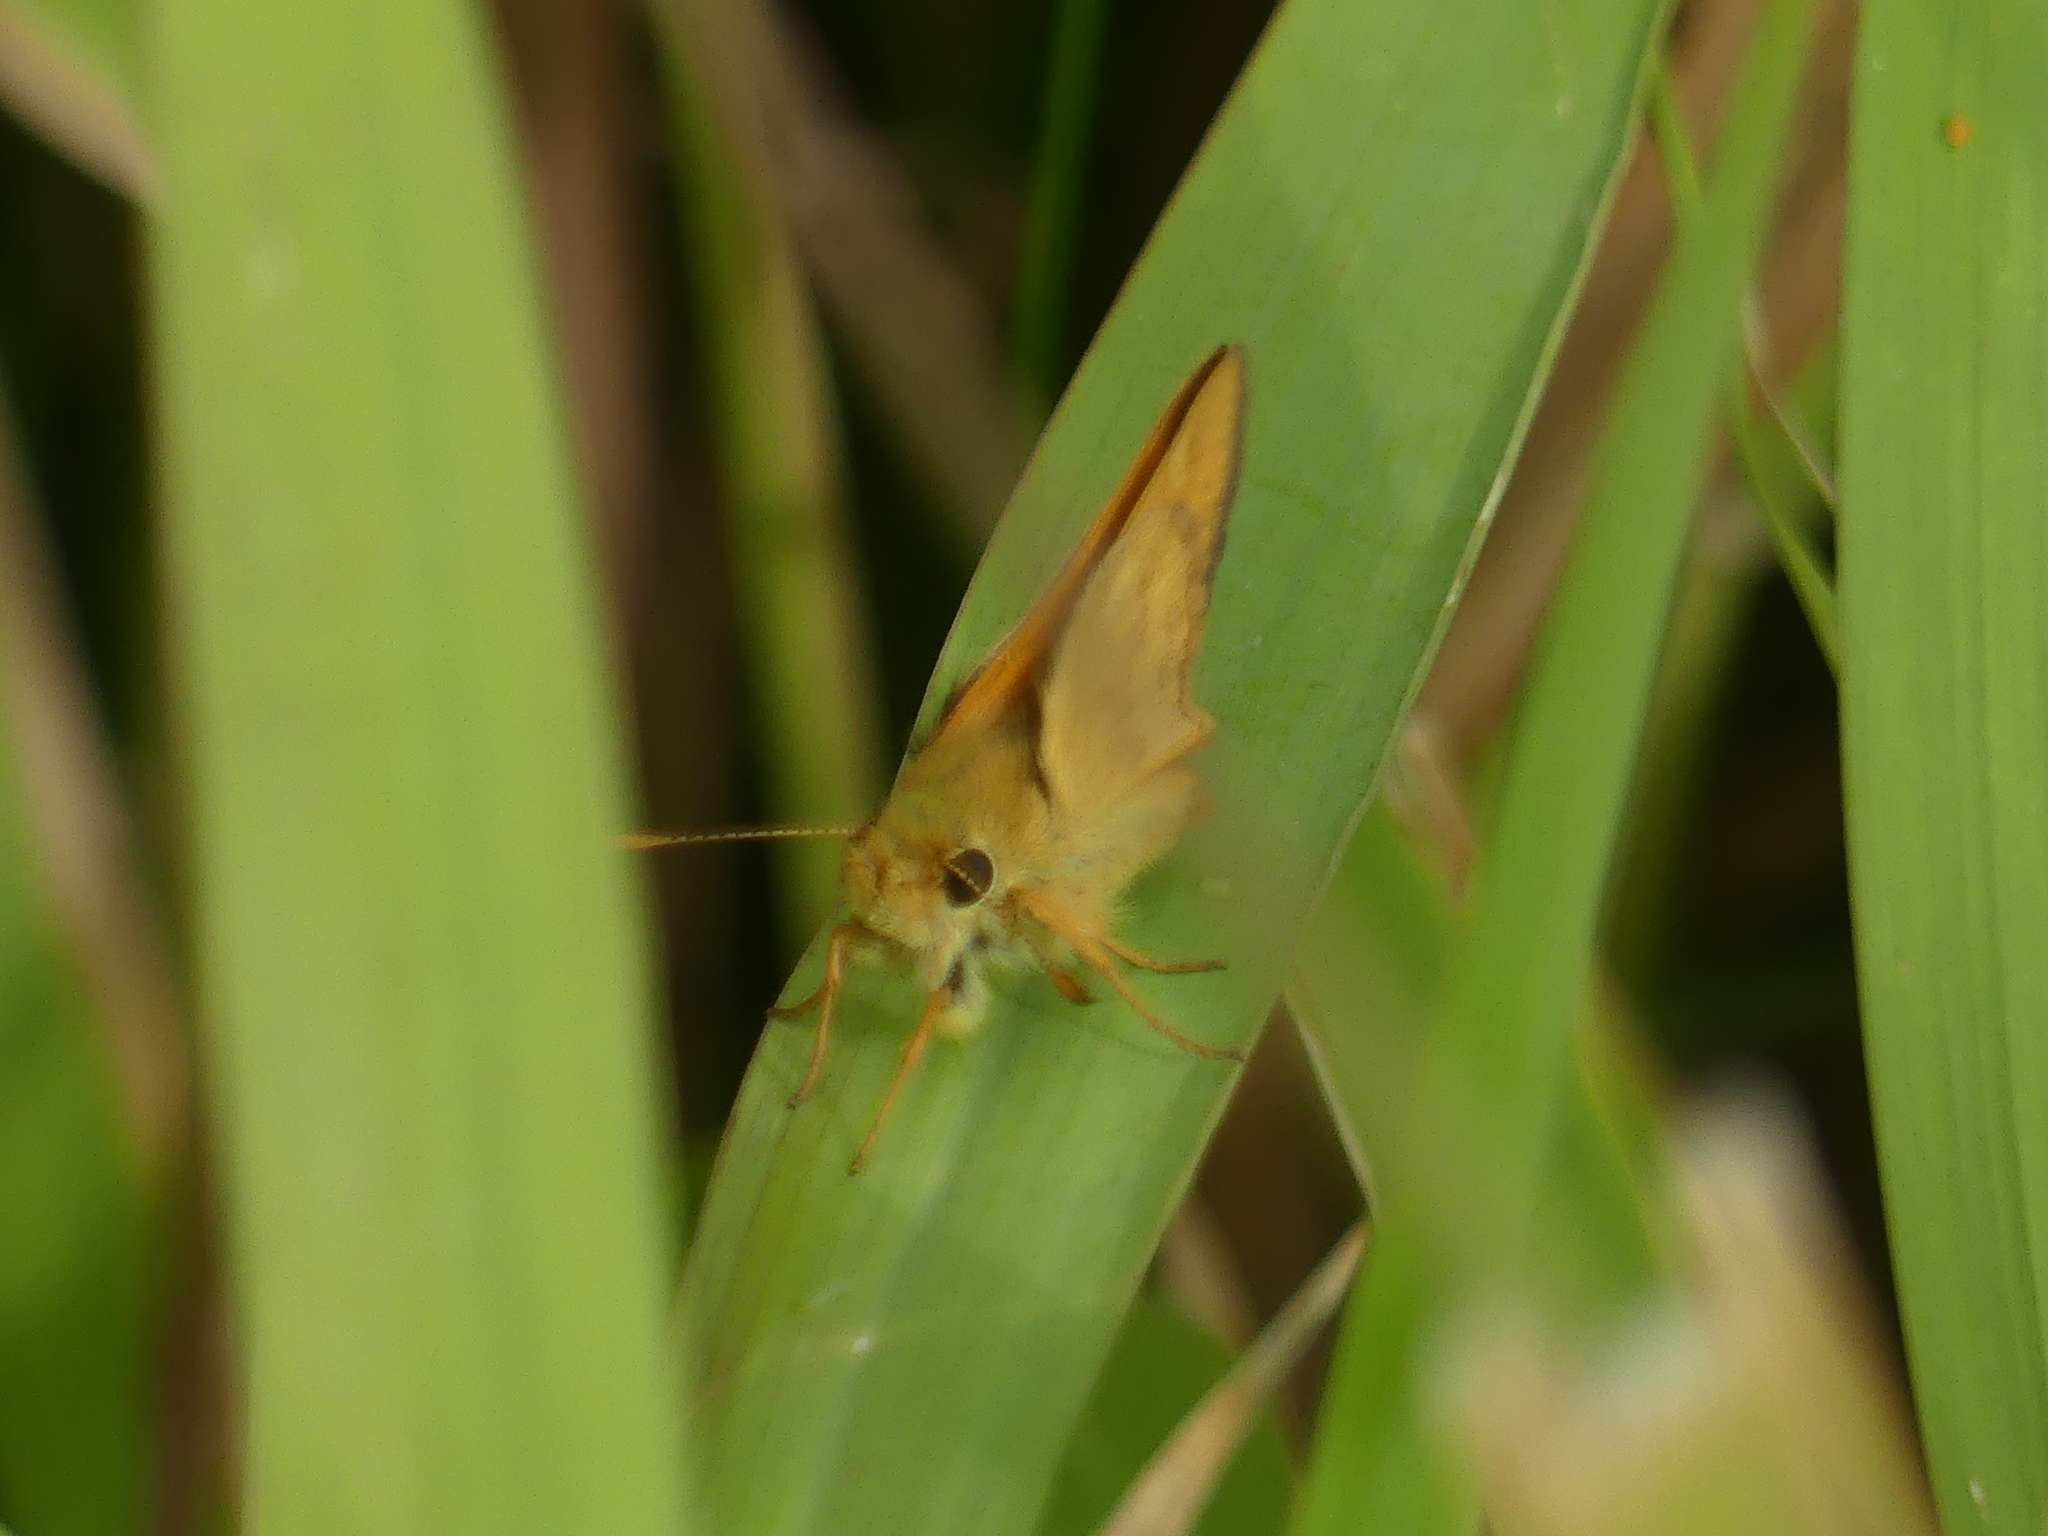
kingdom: Animalia
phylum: Arthropoda
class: Insecta
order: Lepidoptera
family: Hesperiidae
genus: Ochlodes
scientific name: Ochlodes sylvanoides
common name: Woodland skipper
